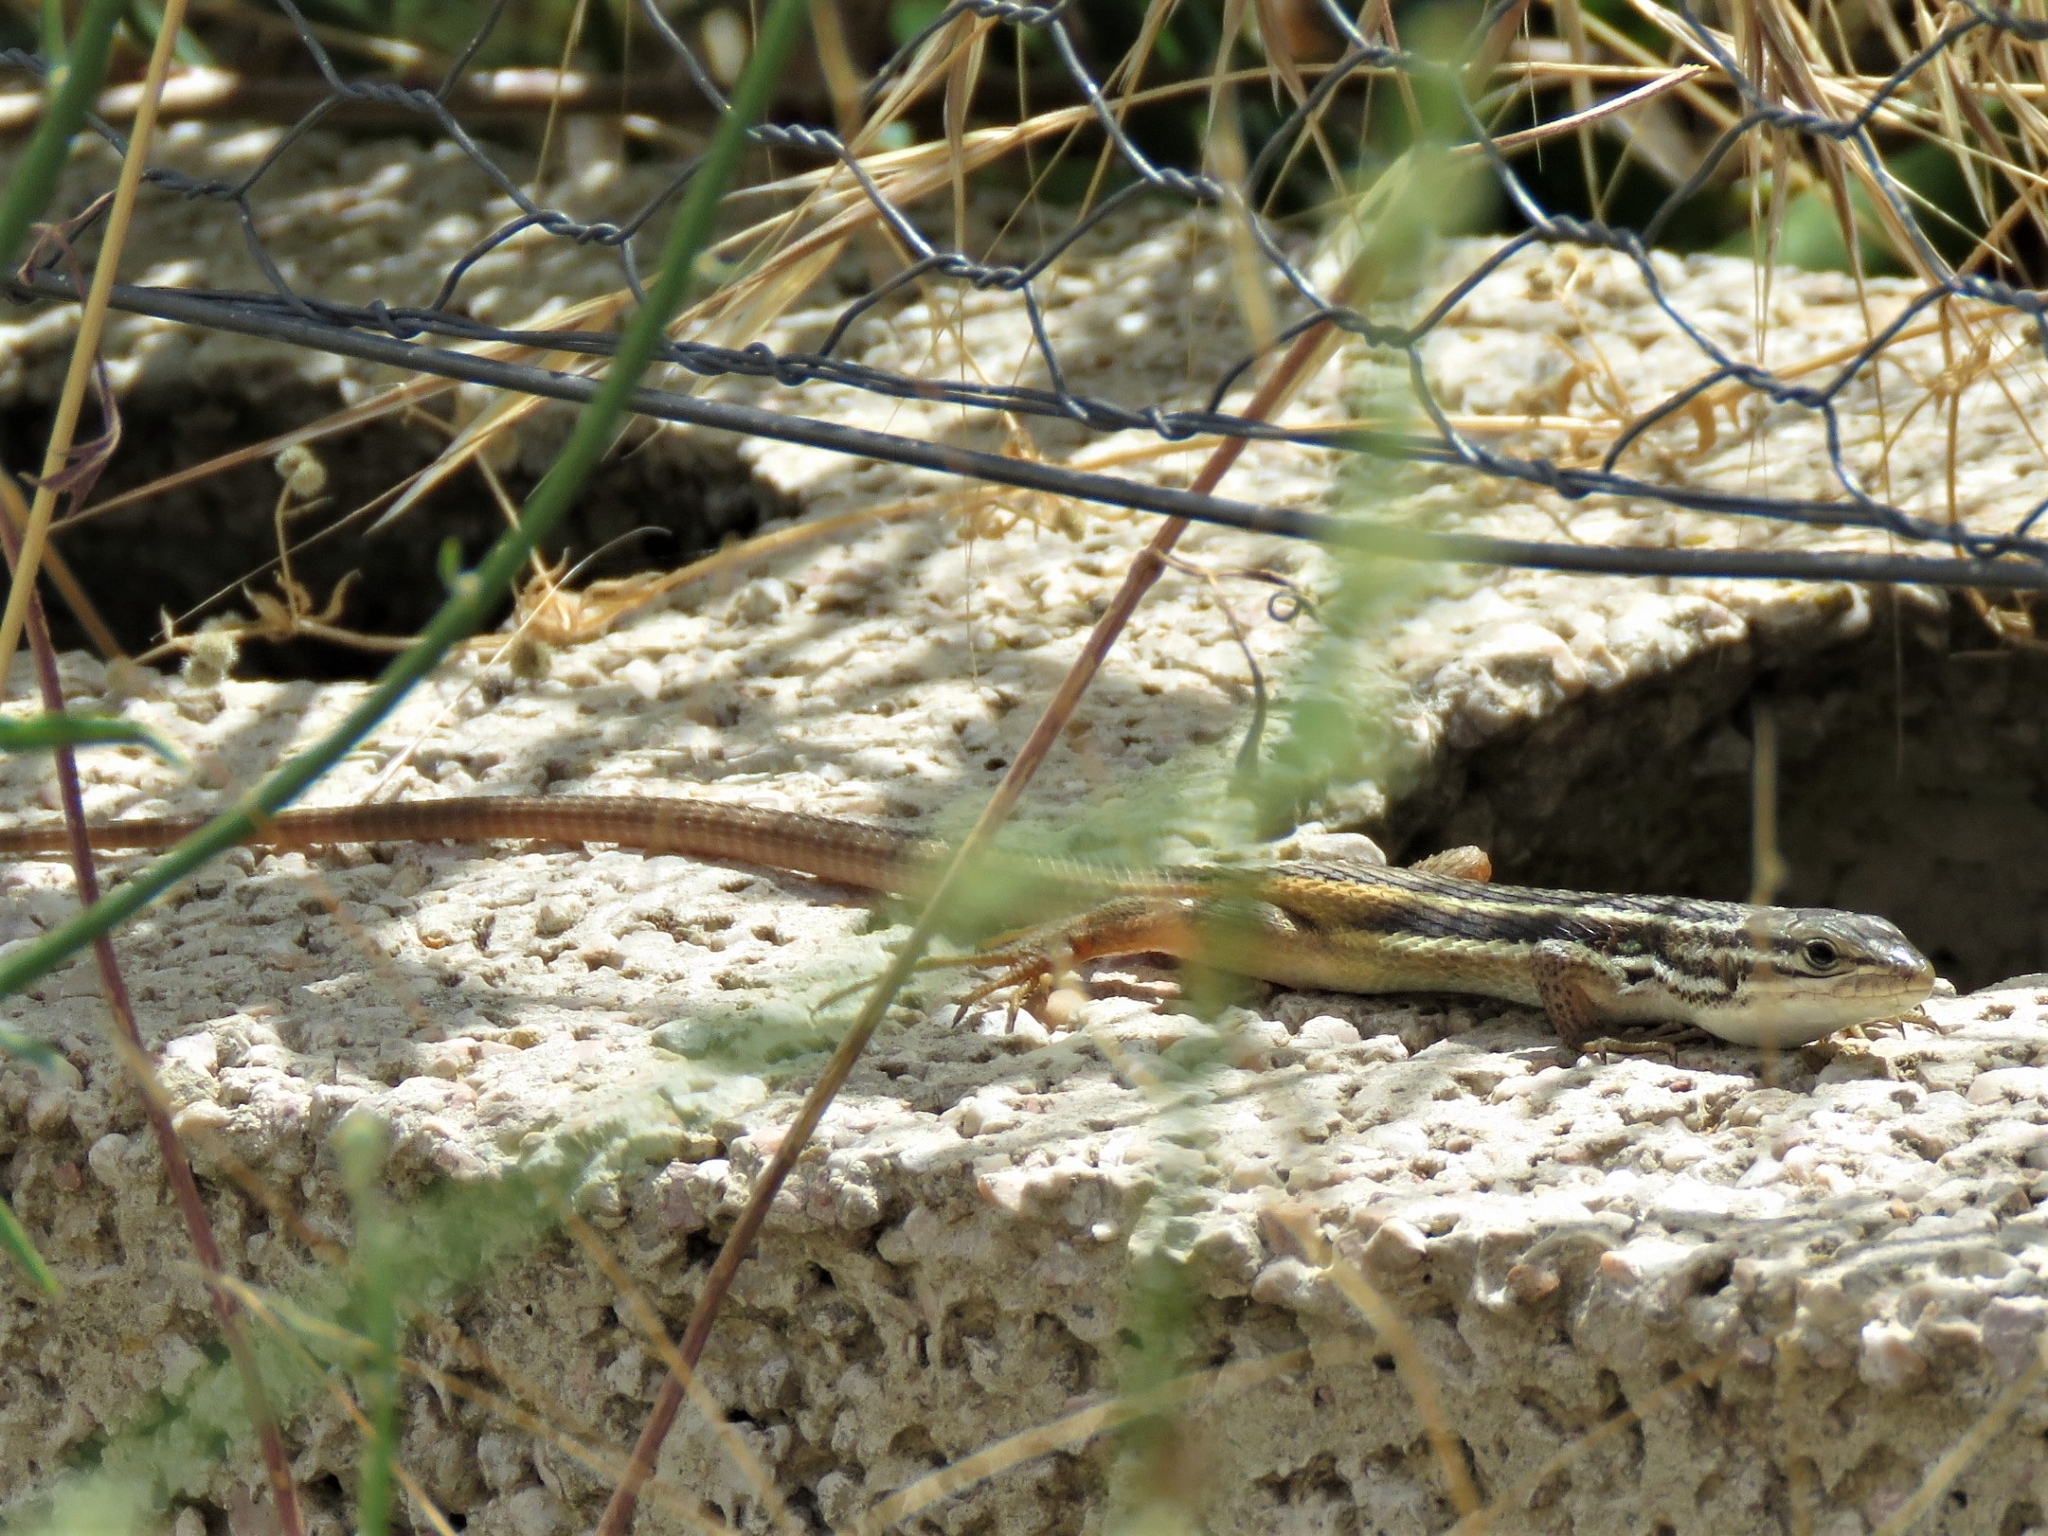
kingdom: Animalia
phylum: Chordata
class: Squamata
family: Lacertidae
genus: Psammodromus
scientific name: Psammodromus algirus
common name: Algerian psammodromus
